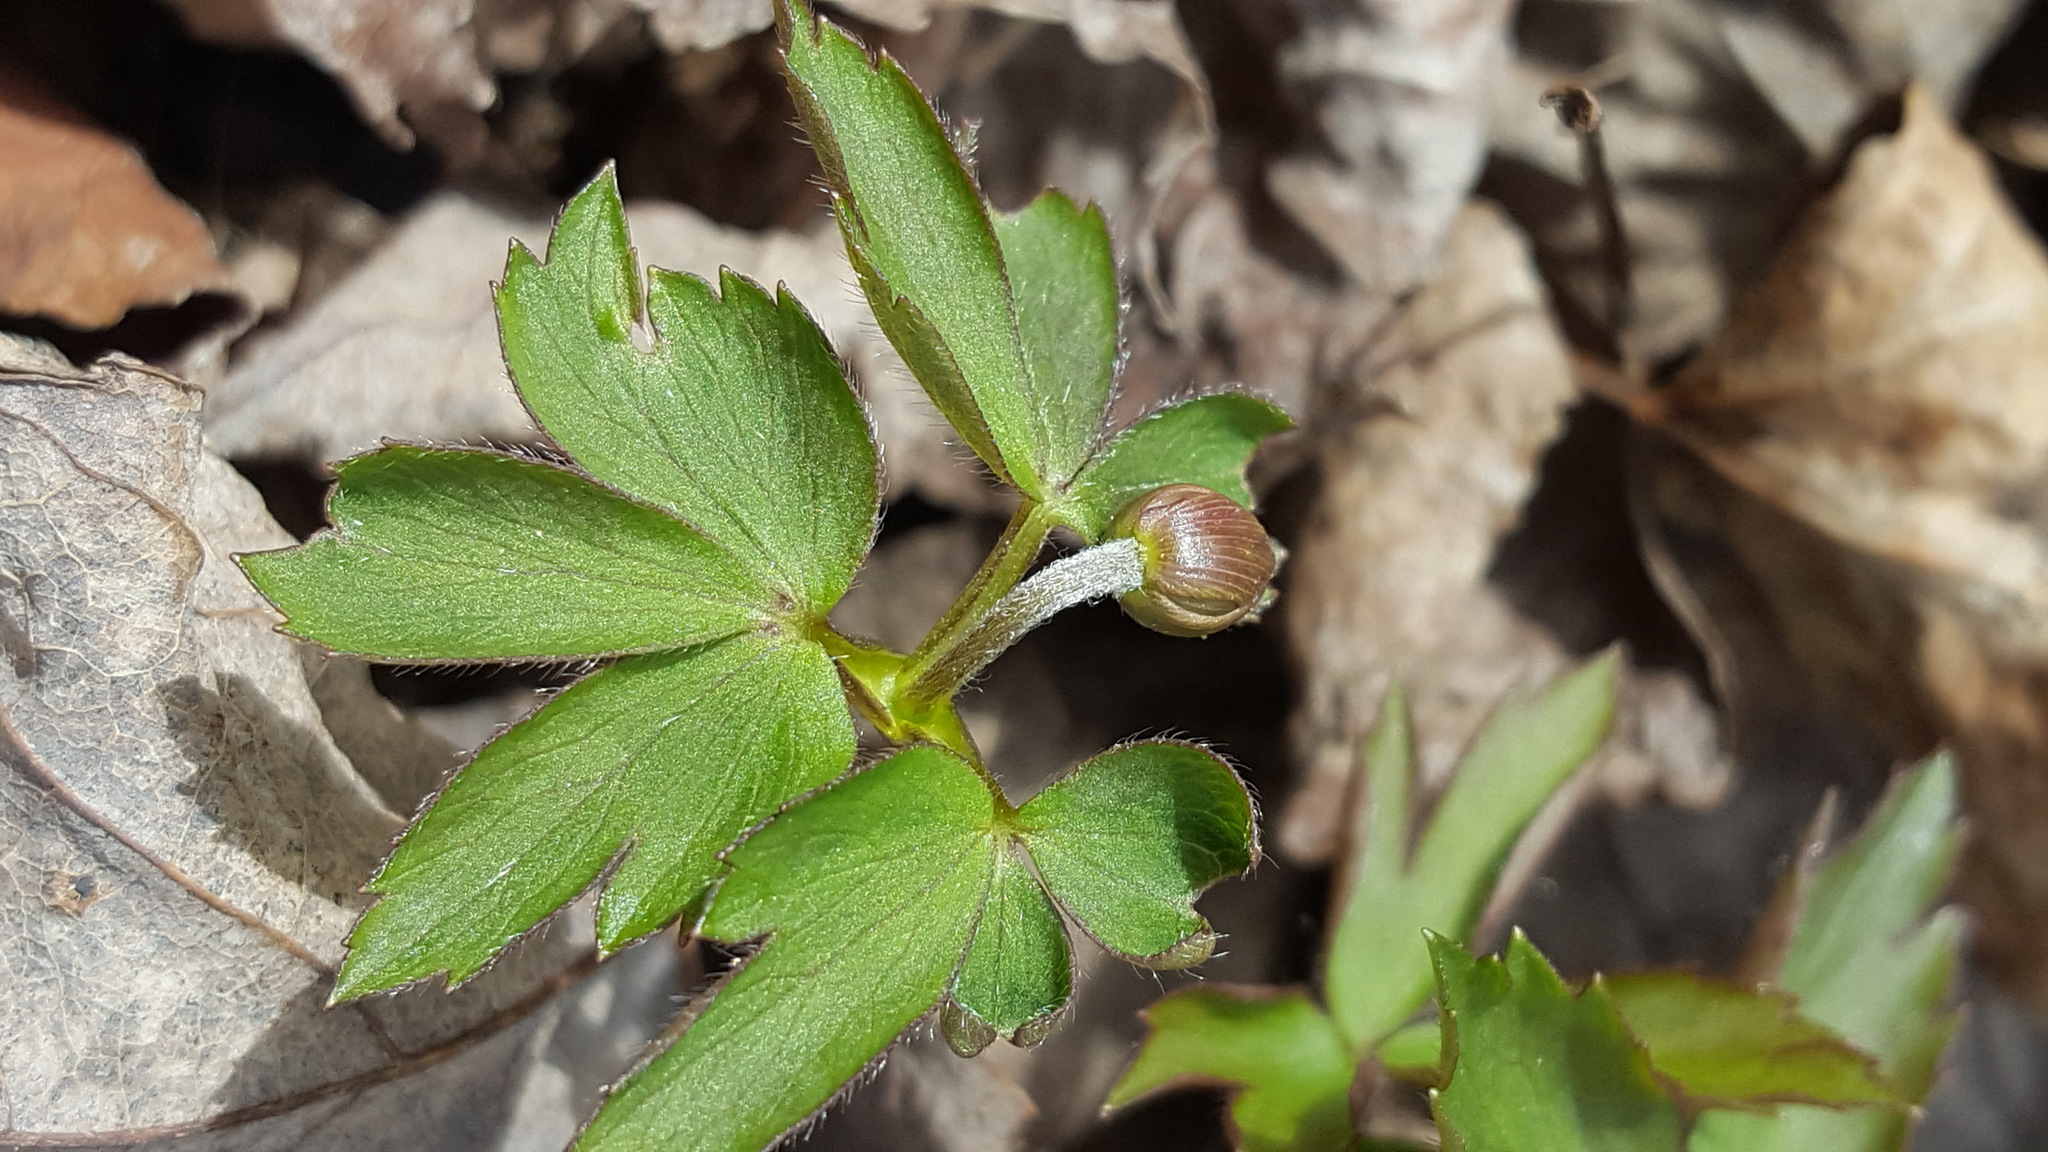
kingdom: Plantae
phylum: Tracheophyta
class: Magnoliopsida
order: Ranunculales
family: Ranunculaceae
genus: Anemone
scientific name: Anemone quinquefolia
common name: Wood anemone
